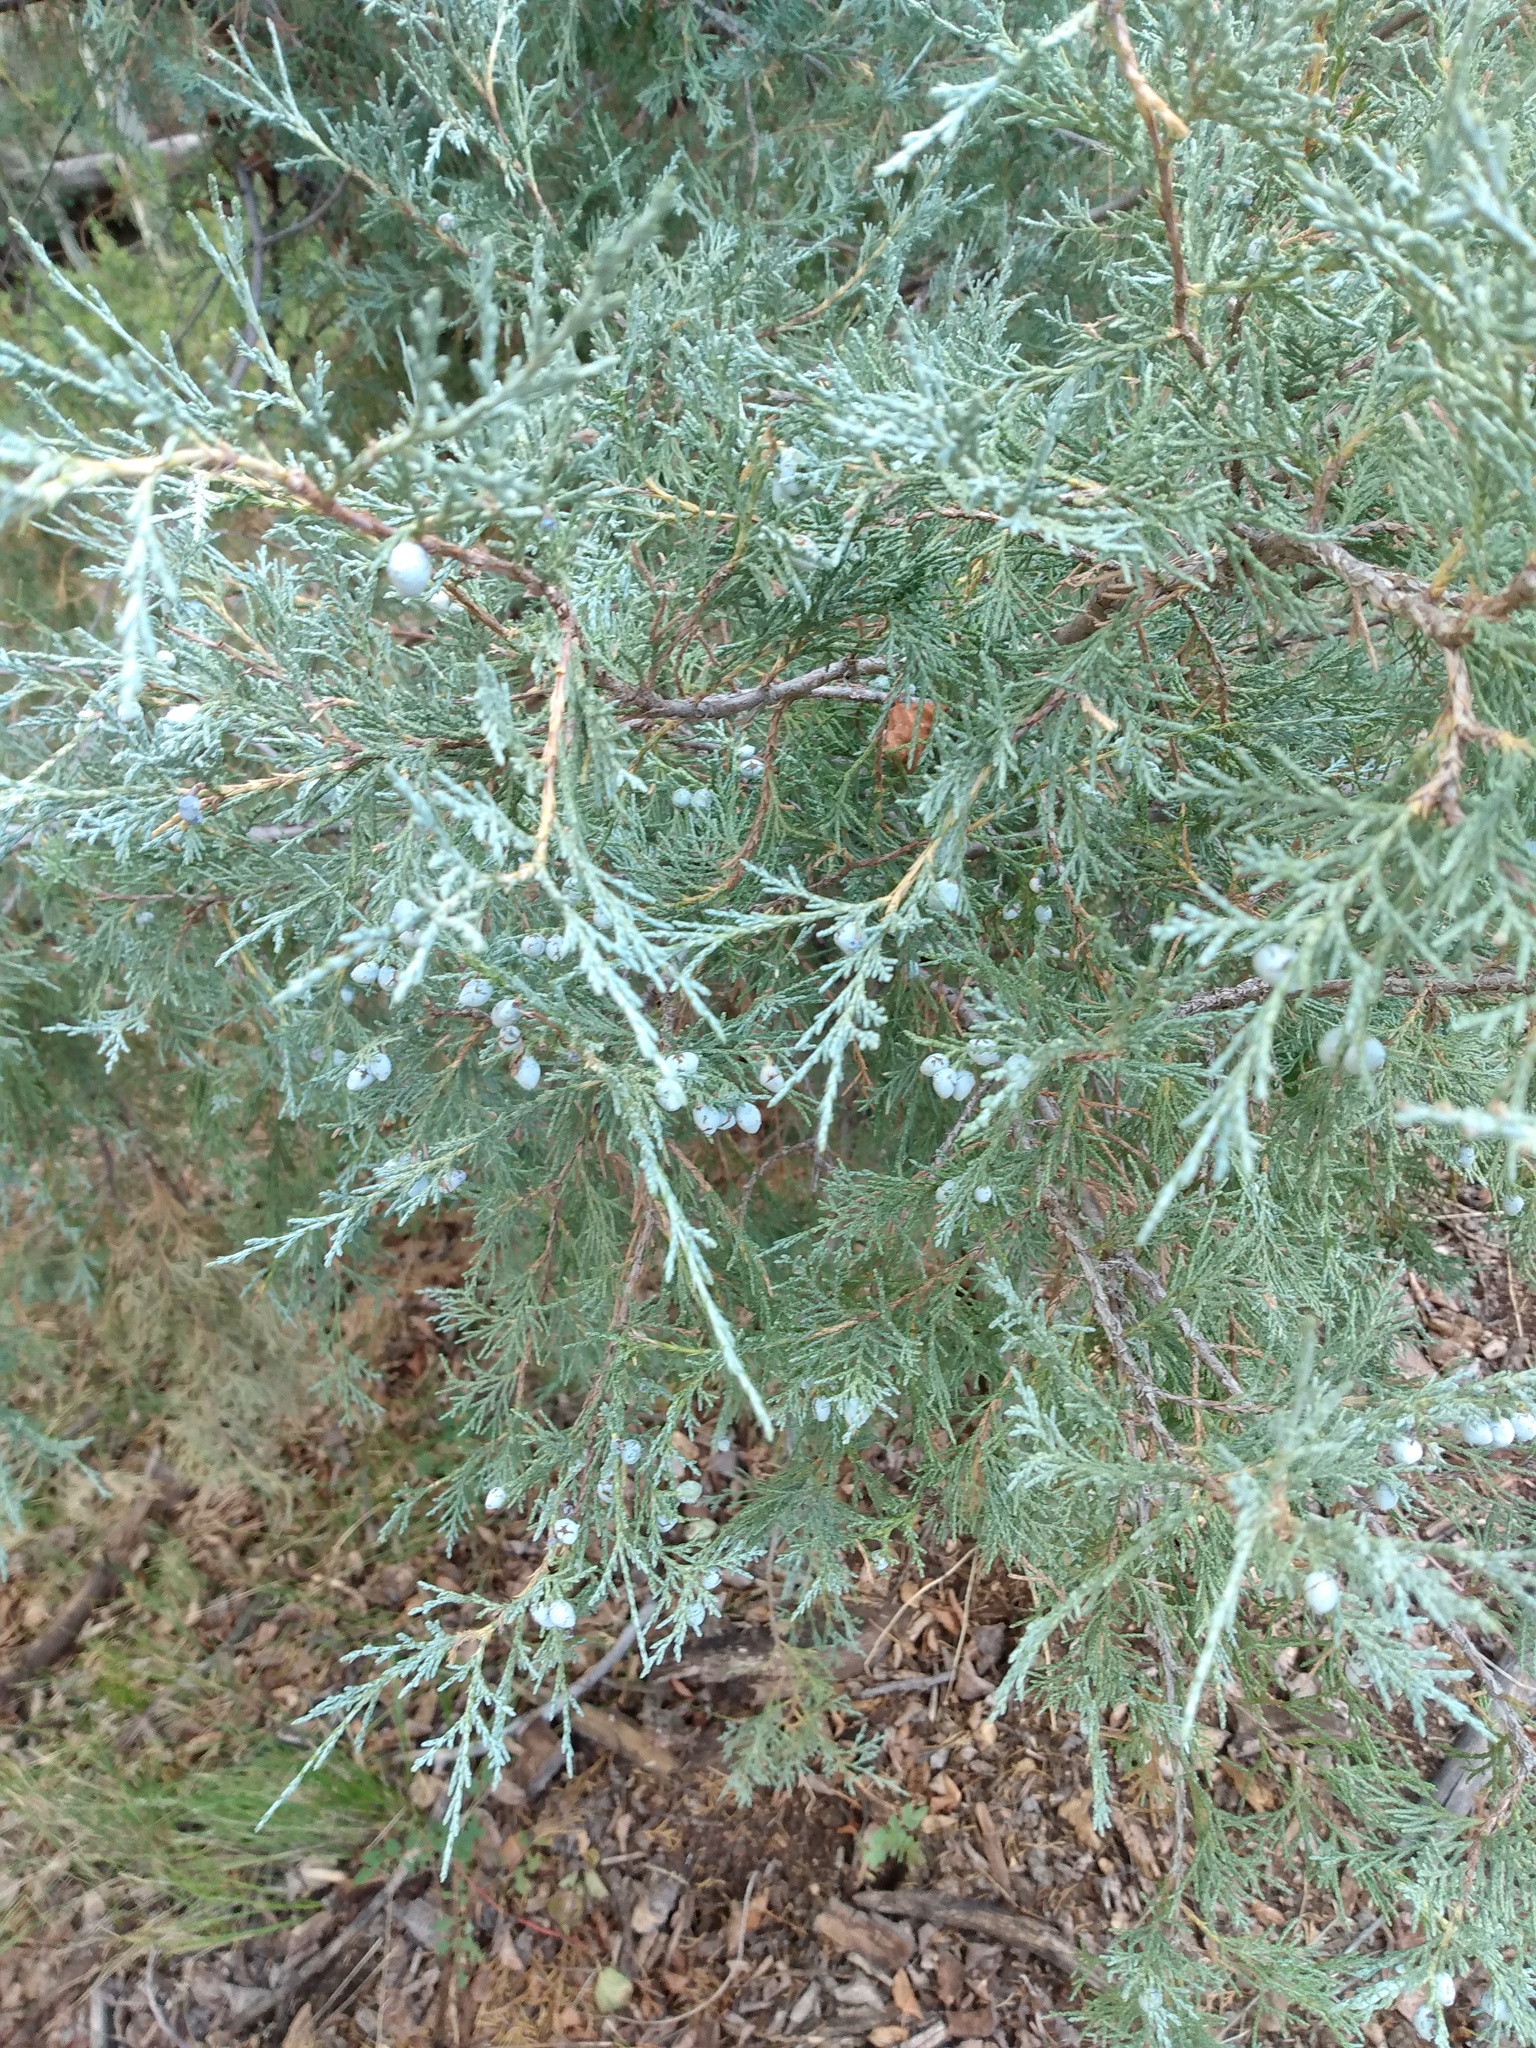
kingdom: Plantae
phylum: Tracheophyta
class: Pinopsida
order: Pinales
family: Cupressaceae
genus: Juniperus
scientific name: Juniperus scopulorum
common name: Rocky mountain juniper
